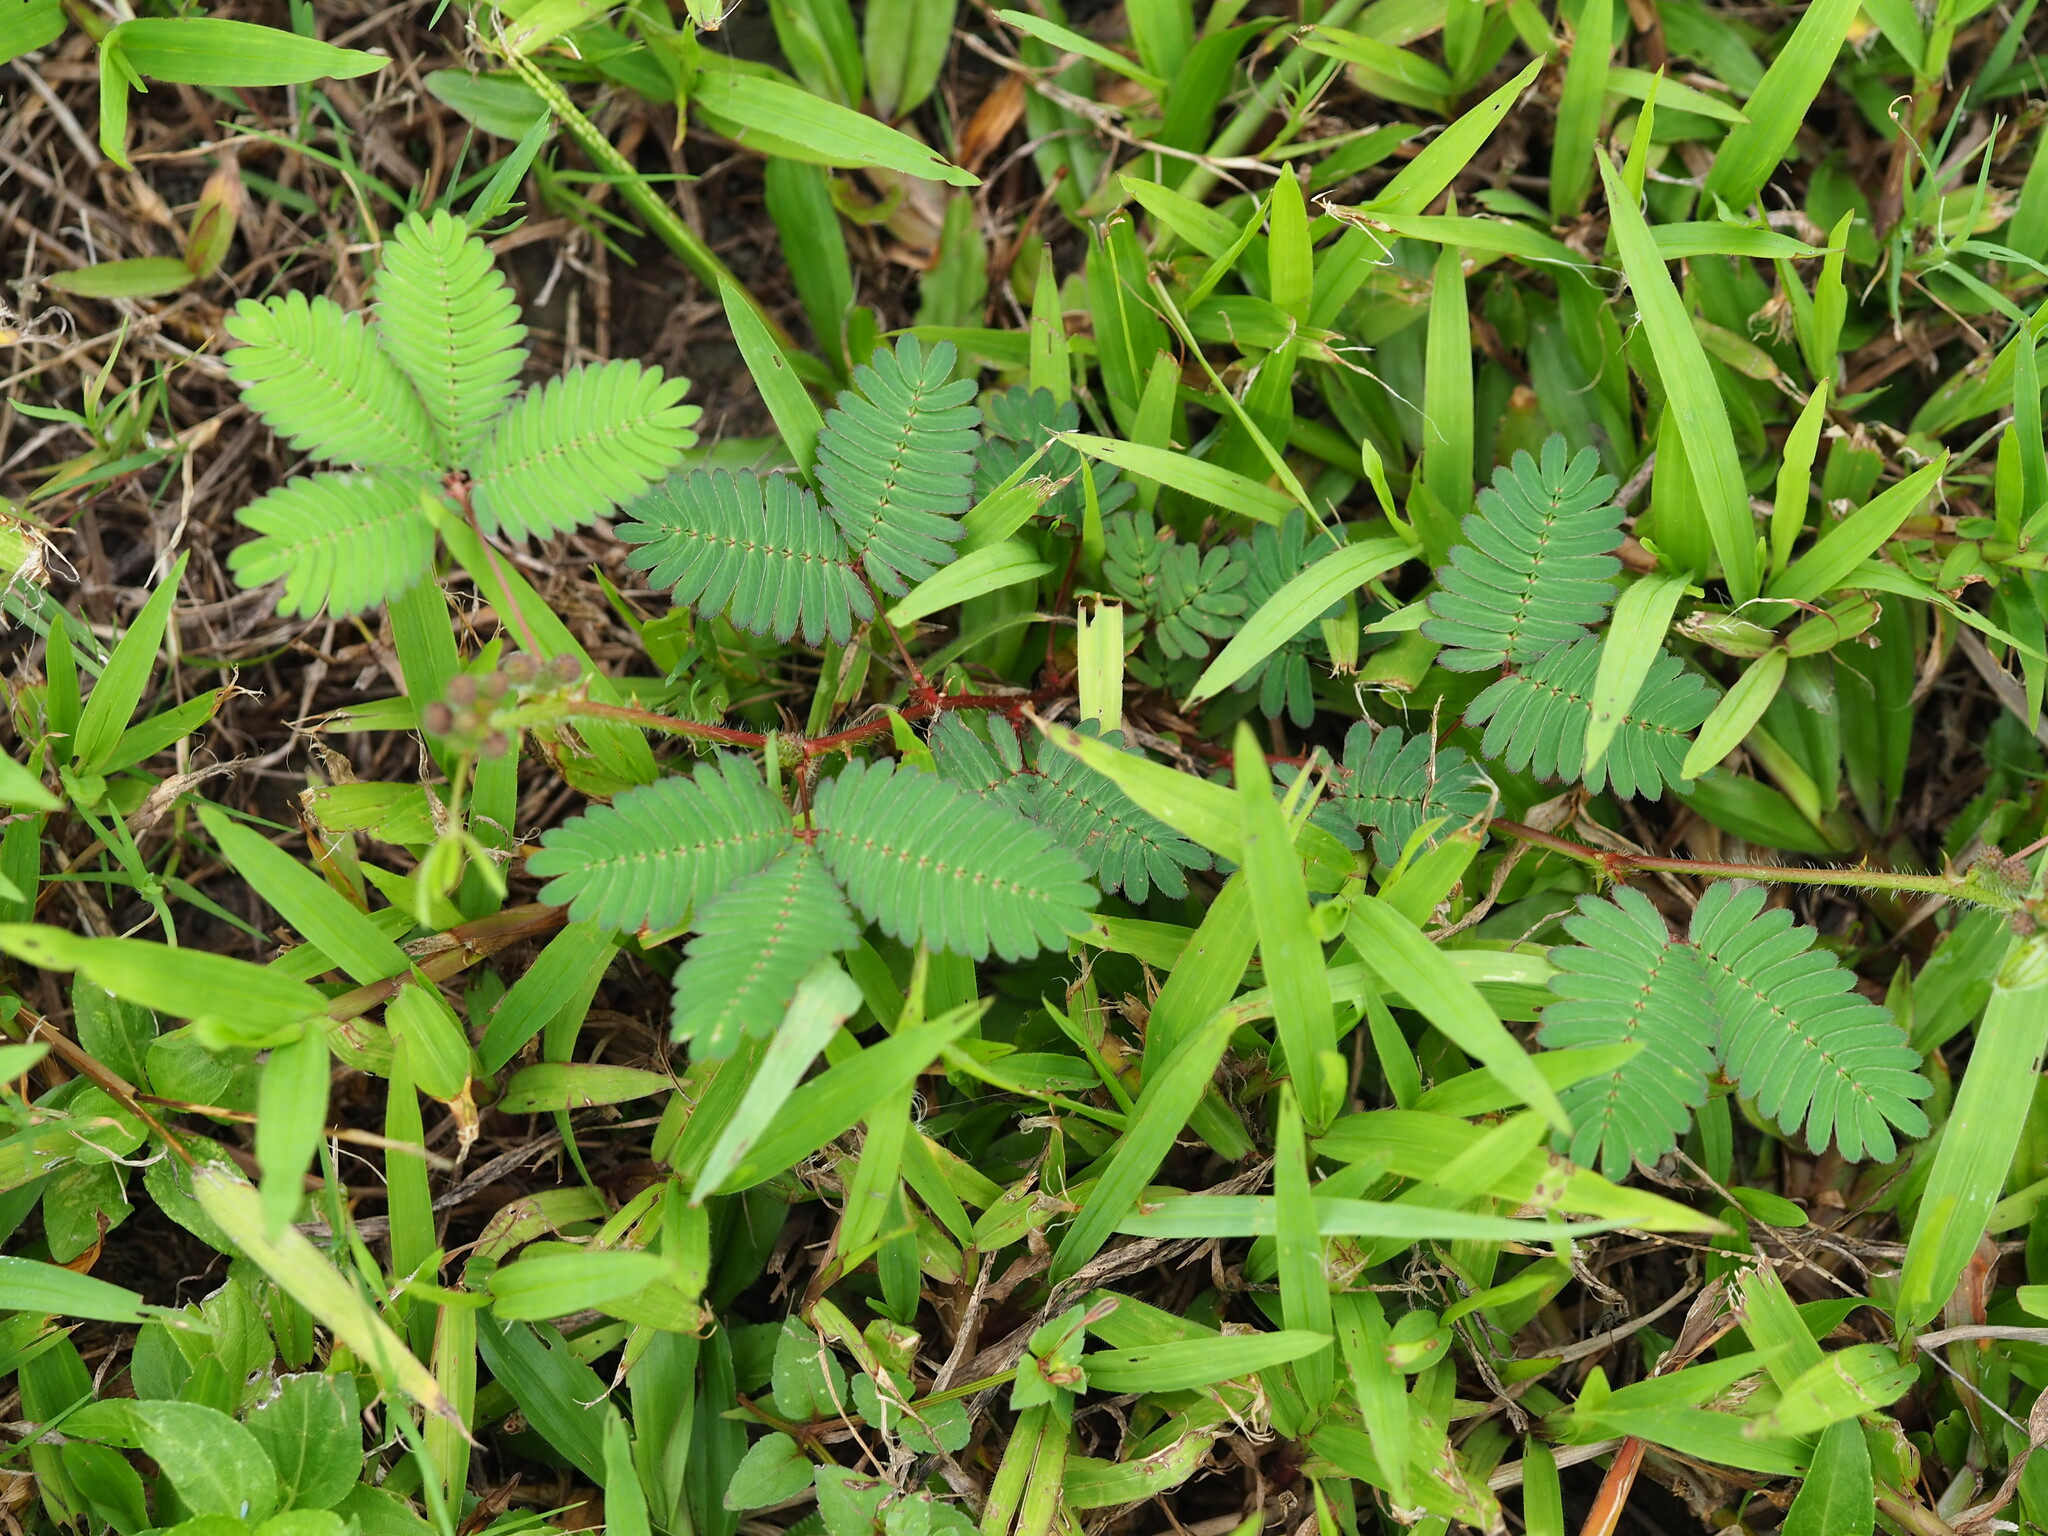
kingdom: Plantae
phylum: Tracheophyta
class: Magnoliopsida
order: Fabales
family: Fabaceae
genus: Mimosa
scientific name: Mimosa pudica
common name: Sensitive plant
